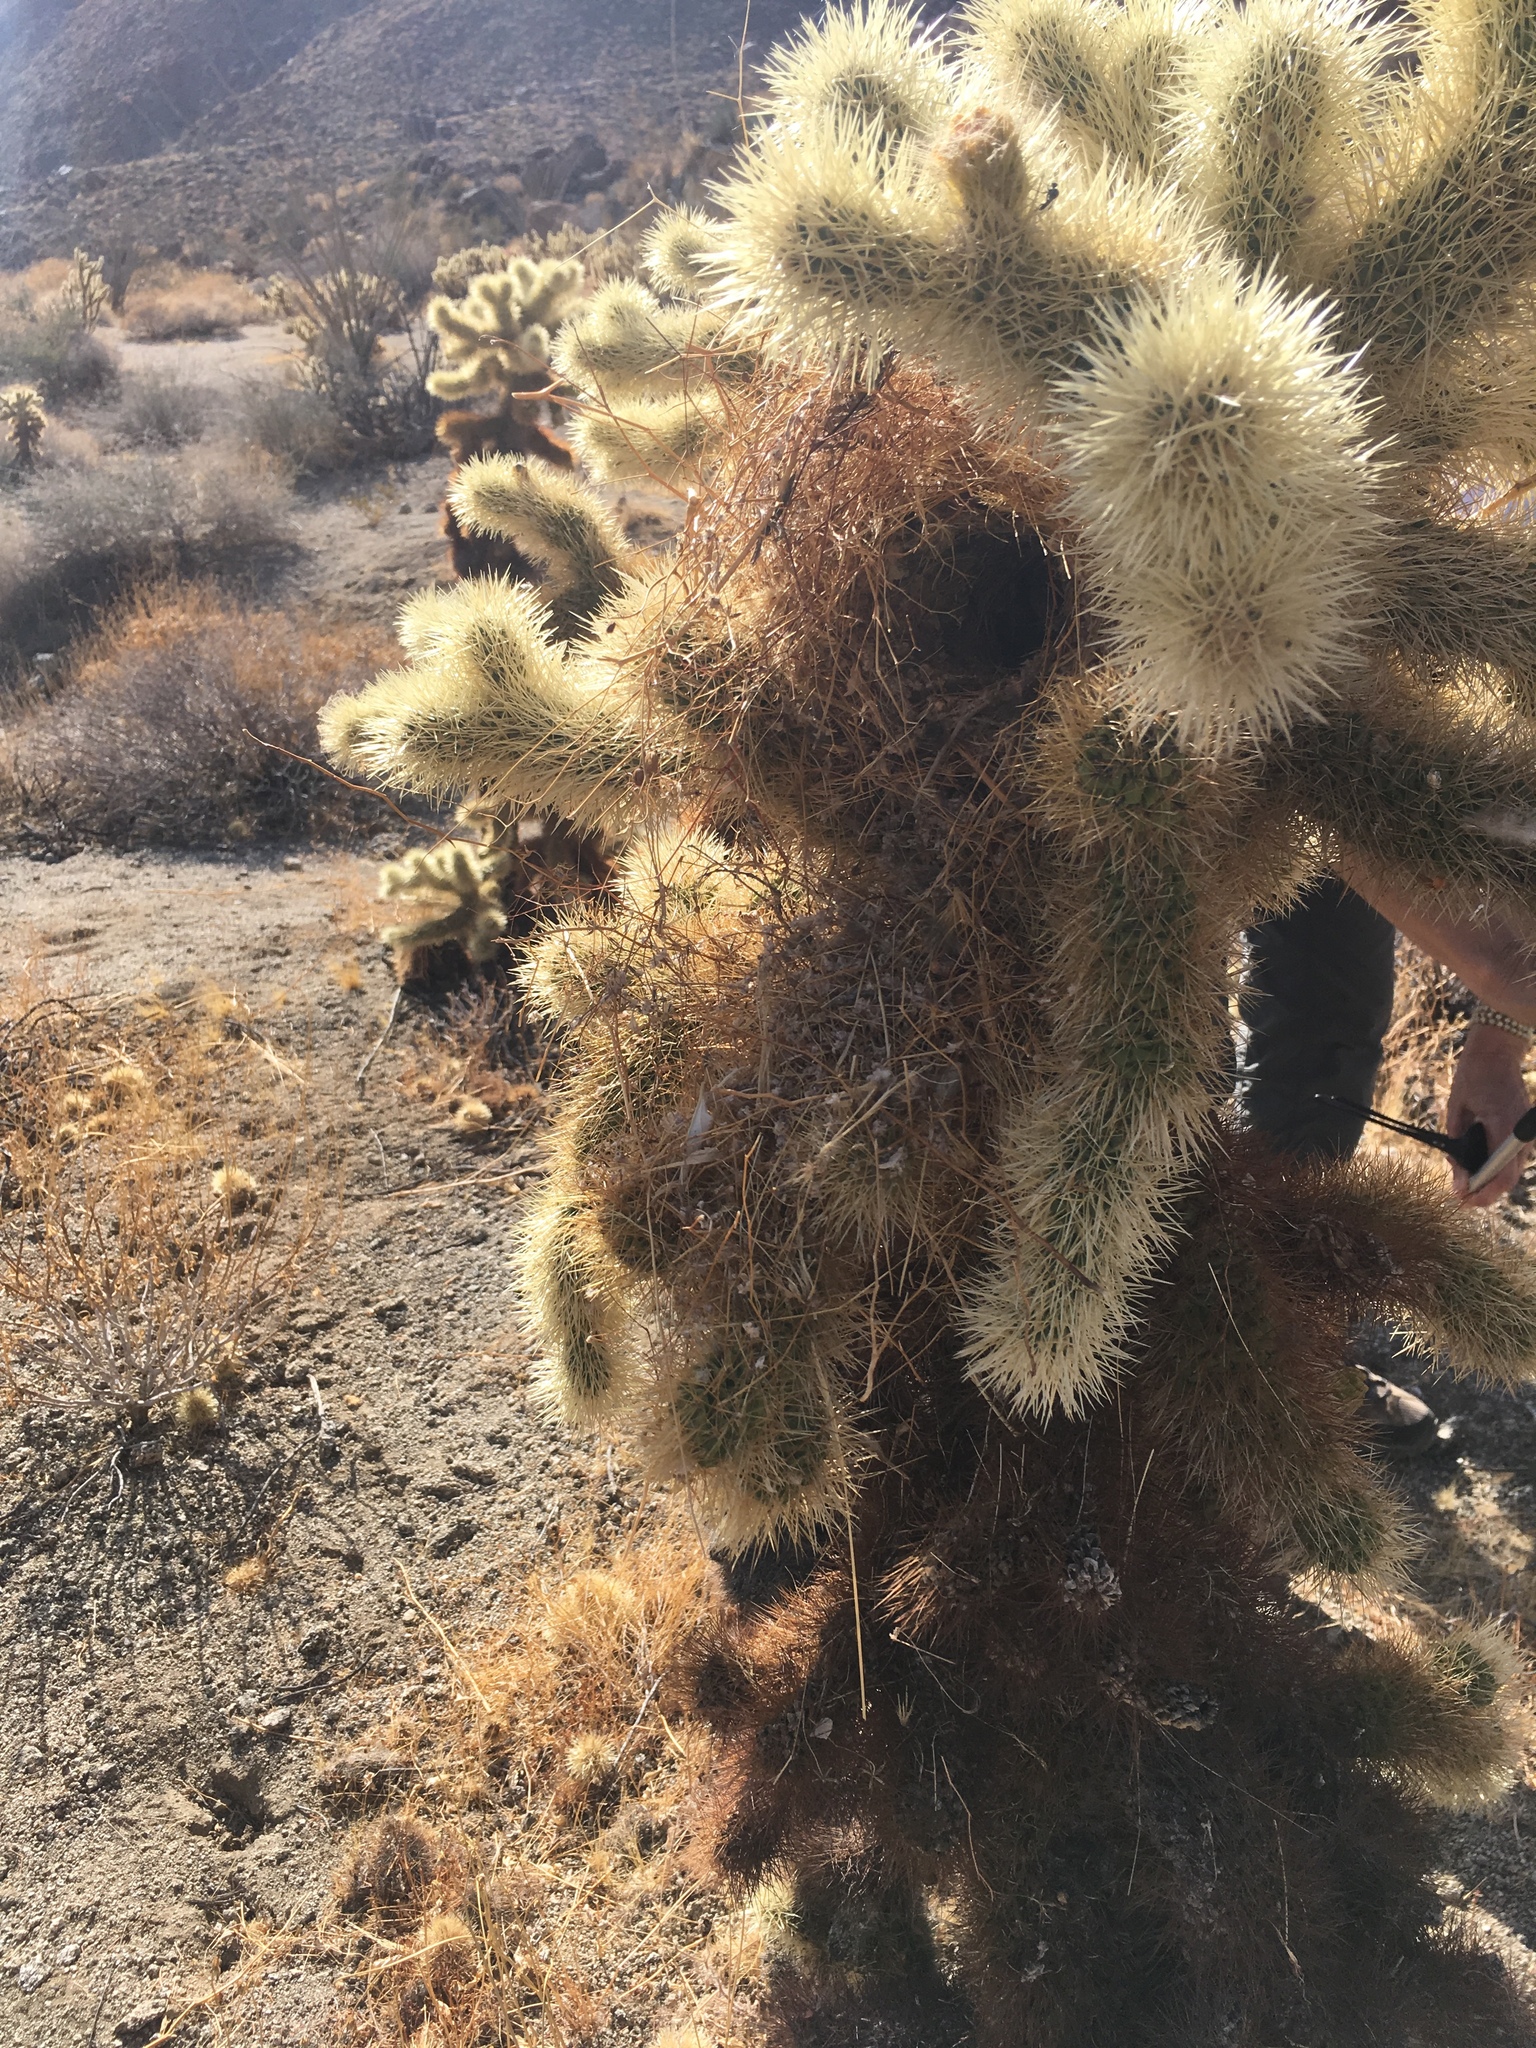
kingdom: Plantae
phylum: Tracheophyta
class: Magnoliopsida
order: Caryophyllales
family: Cactaceae
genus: Cylindropuntia
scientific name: Cylindropuntia fosbergii
